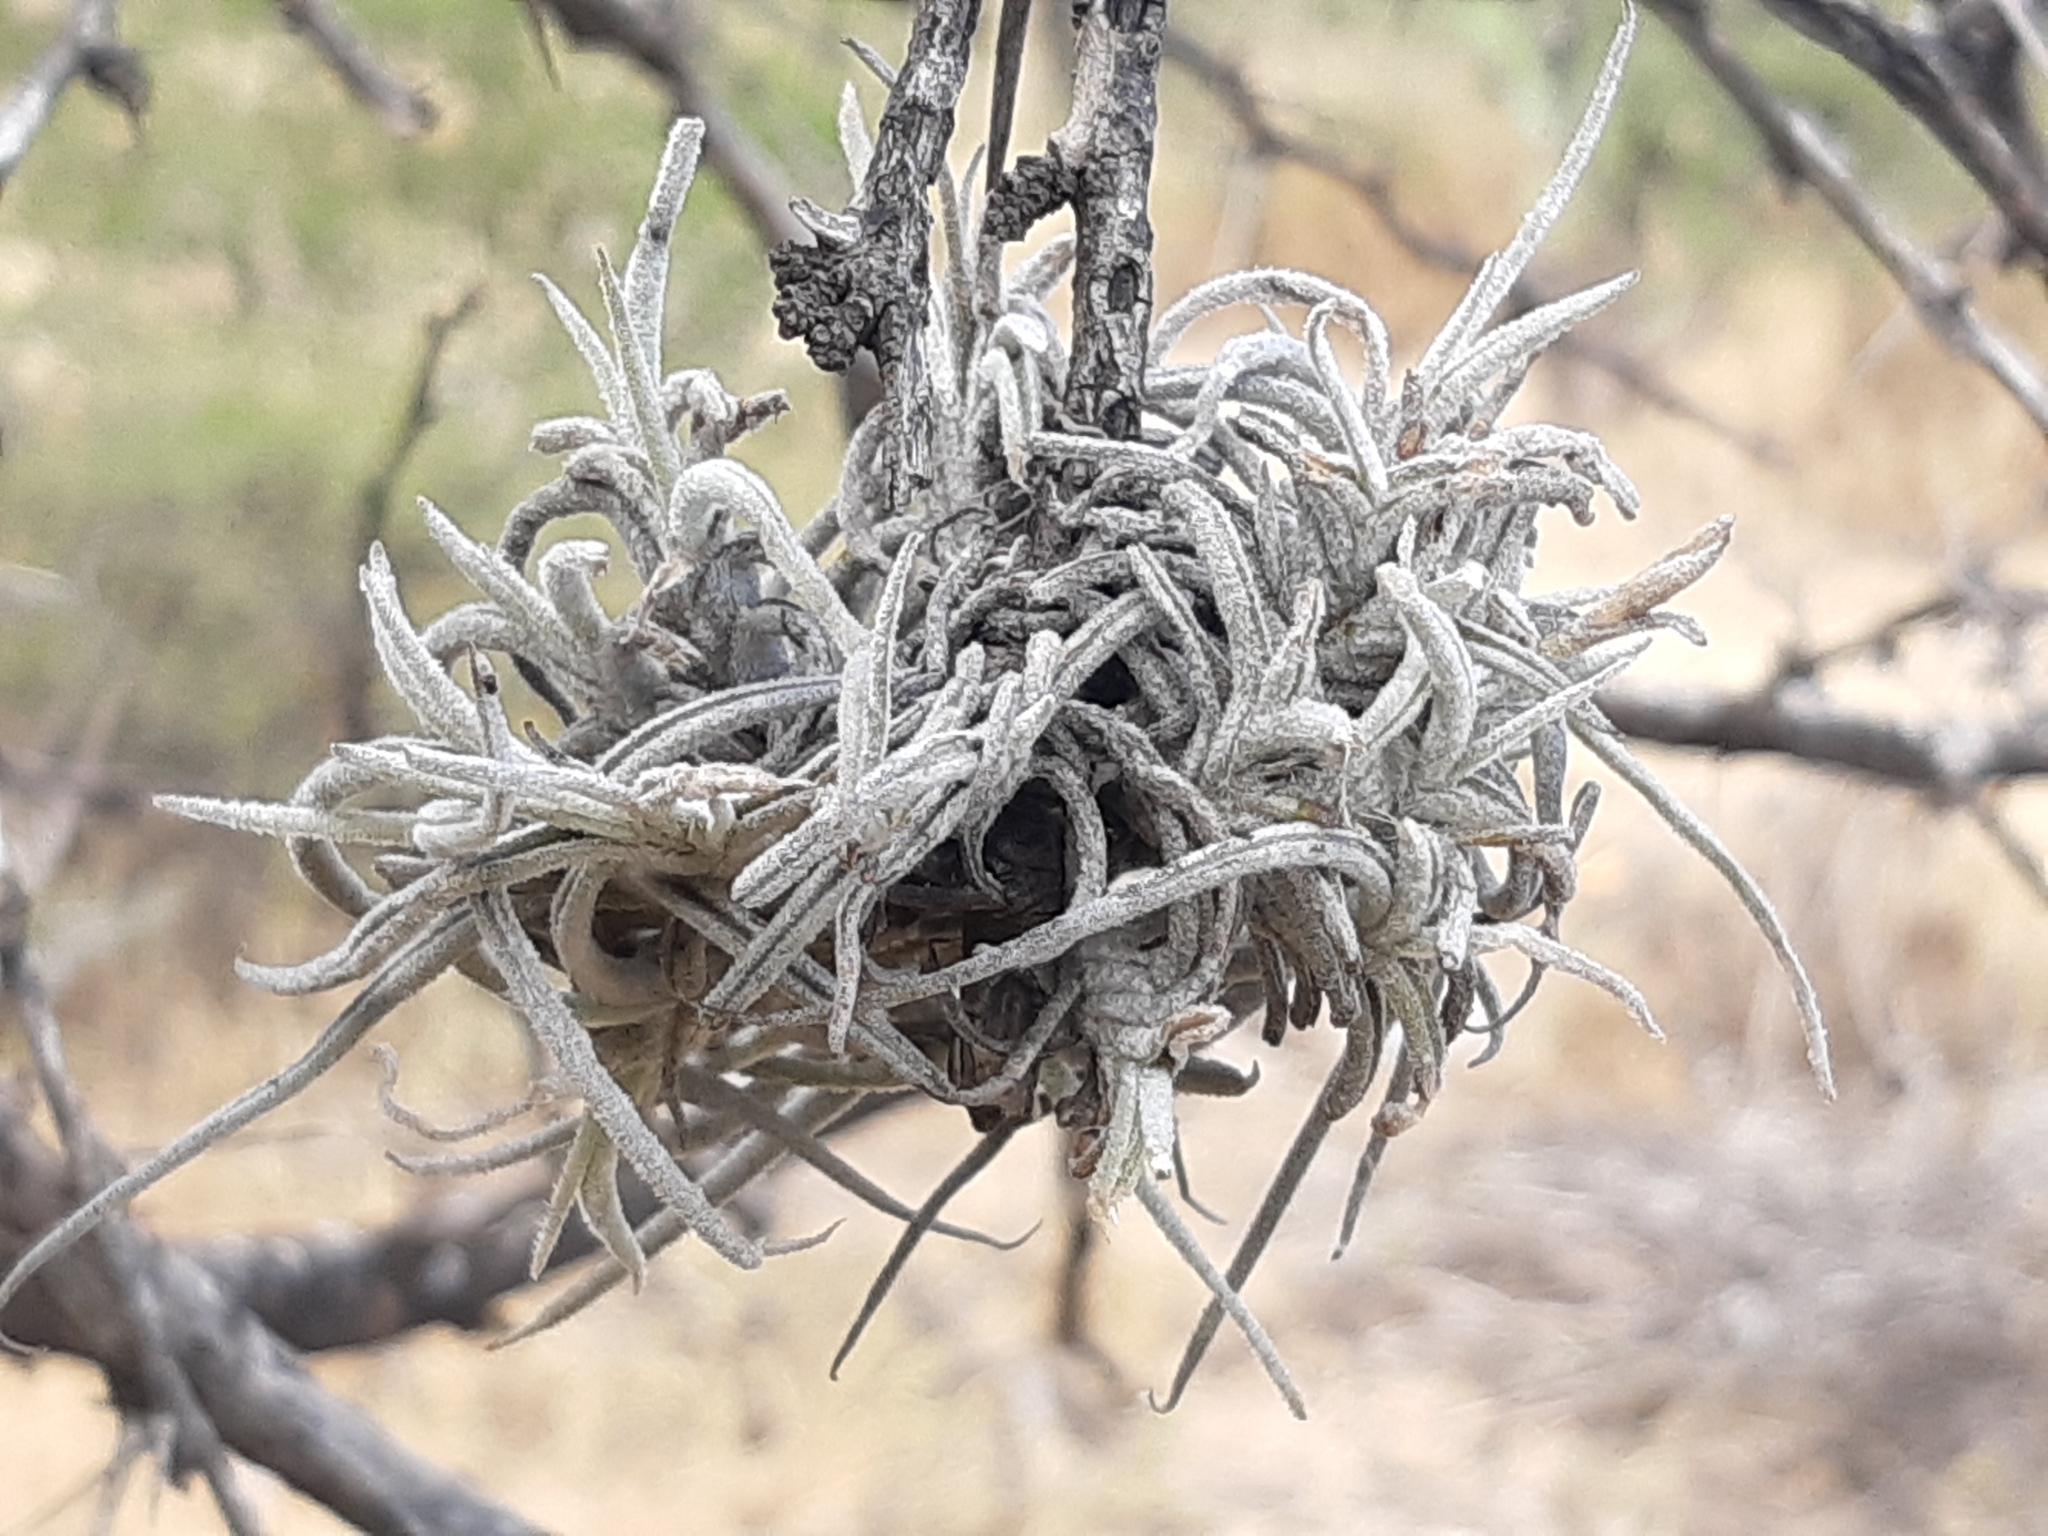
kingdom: Plantae
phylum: Tracheophyta
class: Liliopsida
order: Poales
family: Bromeliaceae
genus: Tillandsia
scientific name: Tillandsia recurvata
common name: Small ballmoss
